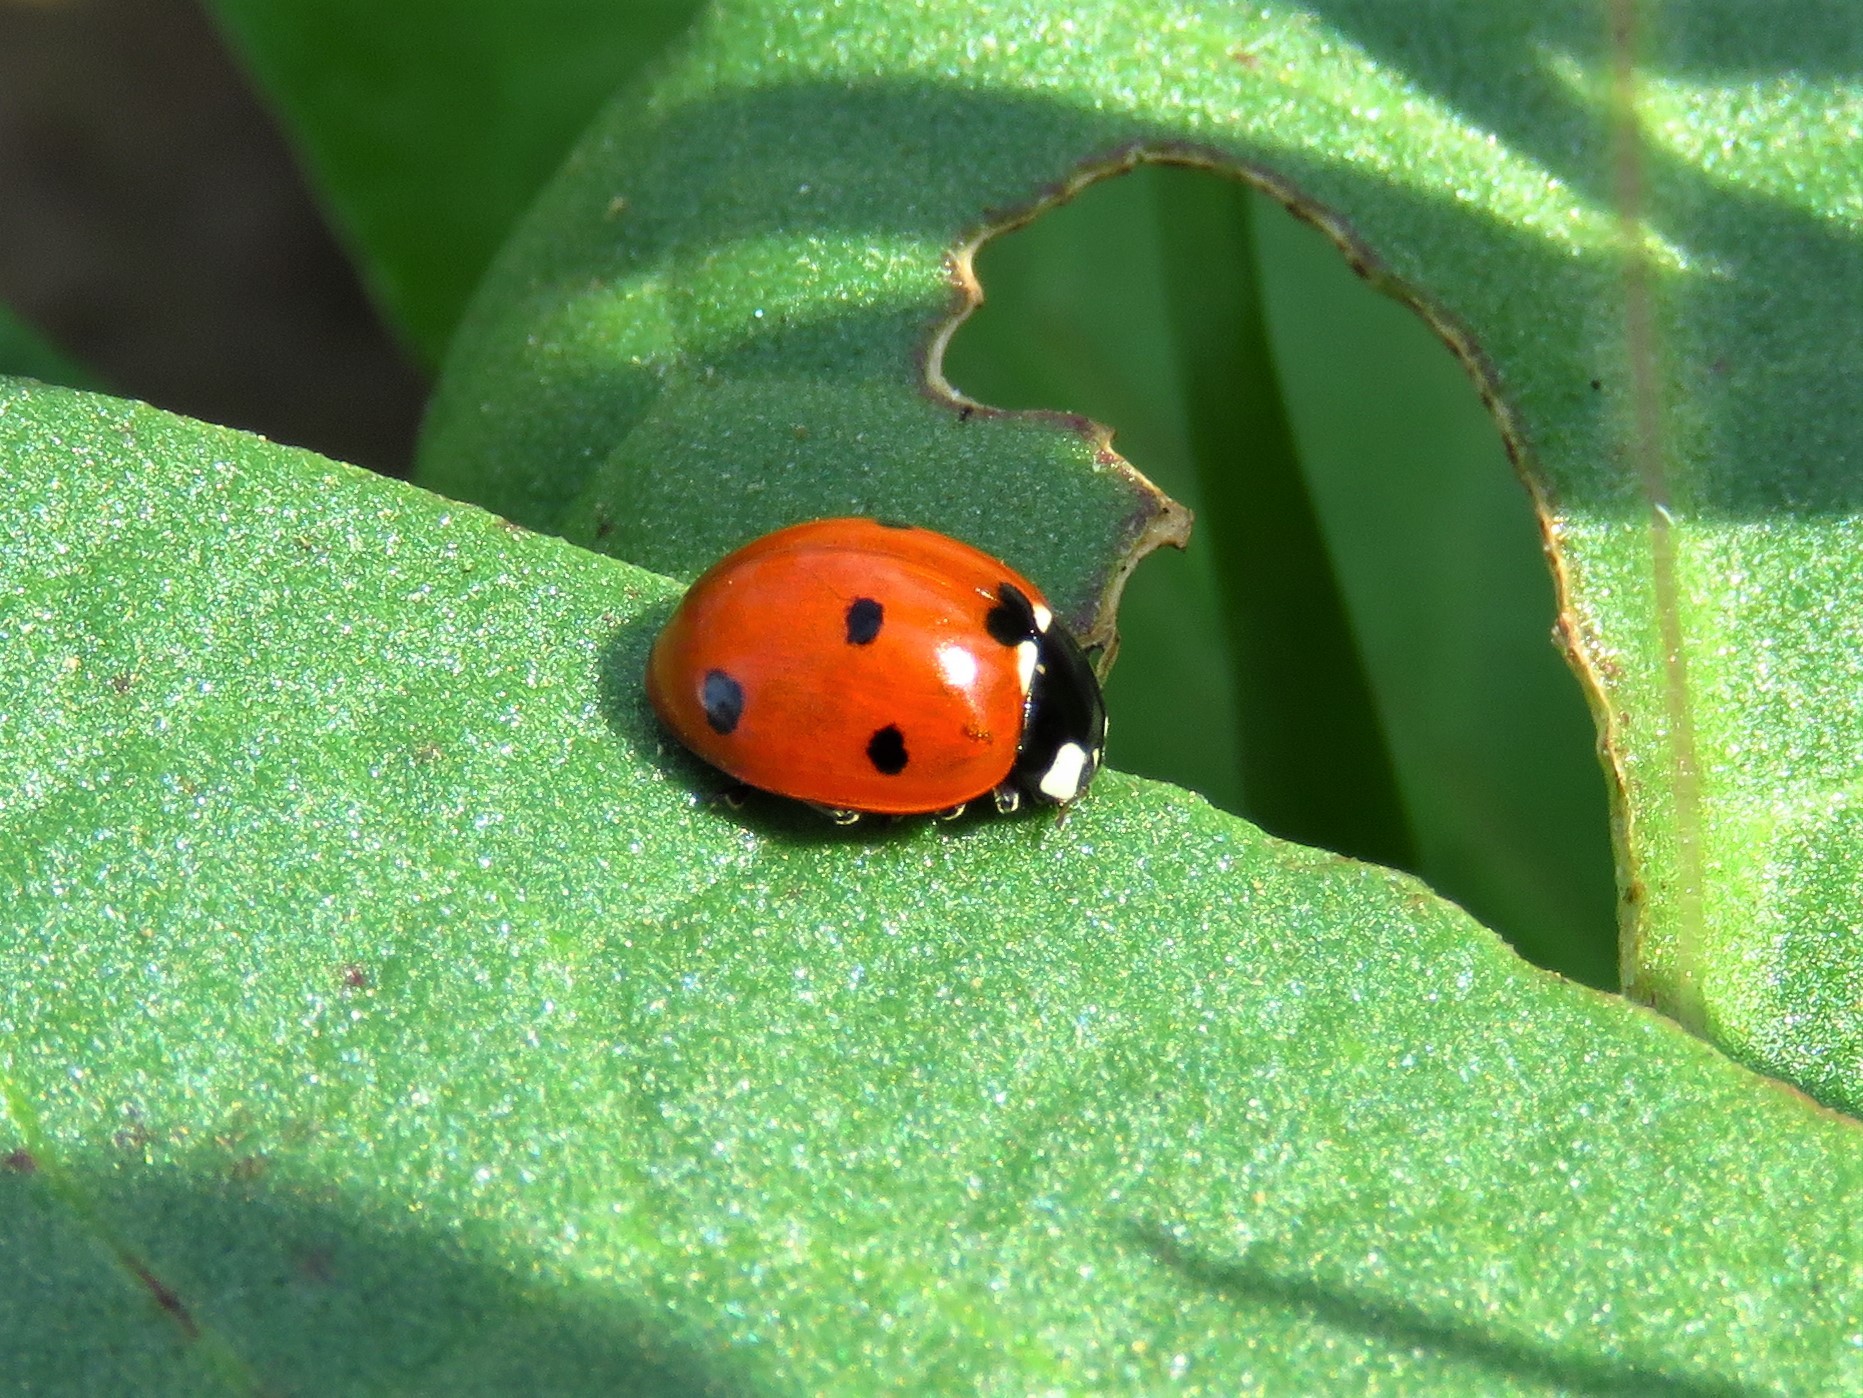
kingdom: Animalia
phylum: Arthropoda
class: Insecta
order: Coleoptera
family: Coccinellidae
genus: Coccinella
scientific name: Coccinella septempunctata
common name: Sevenspotted lady beetle
